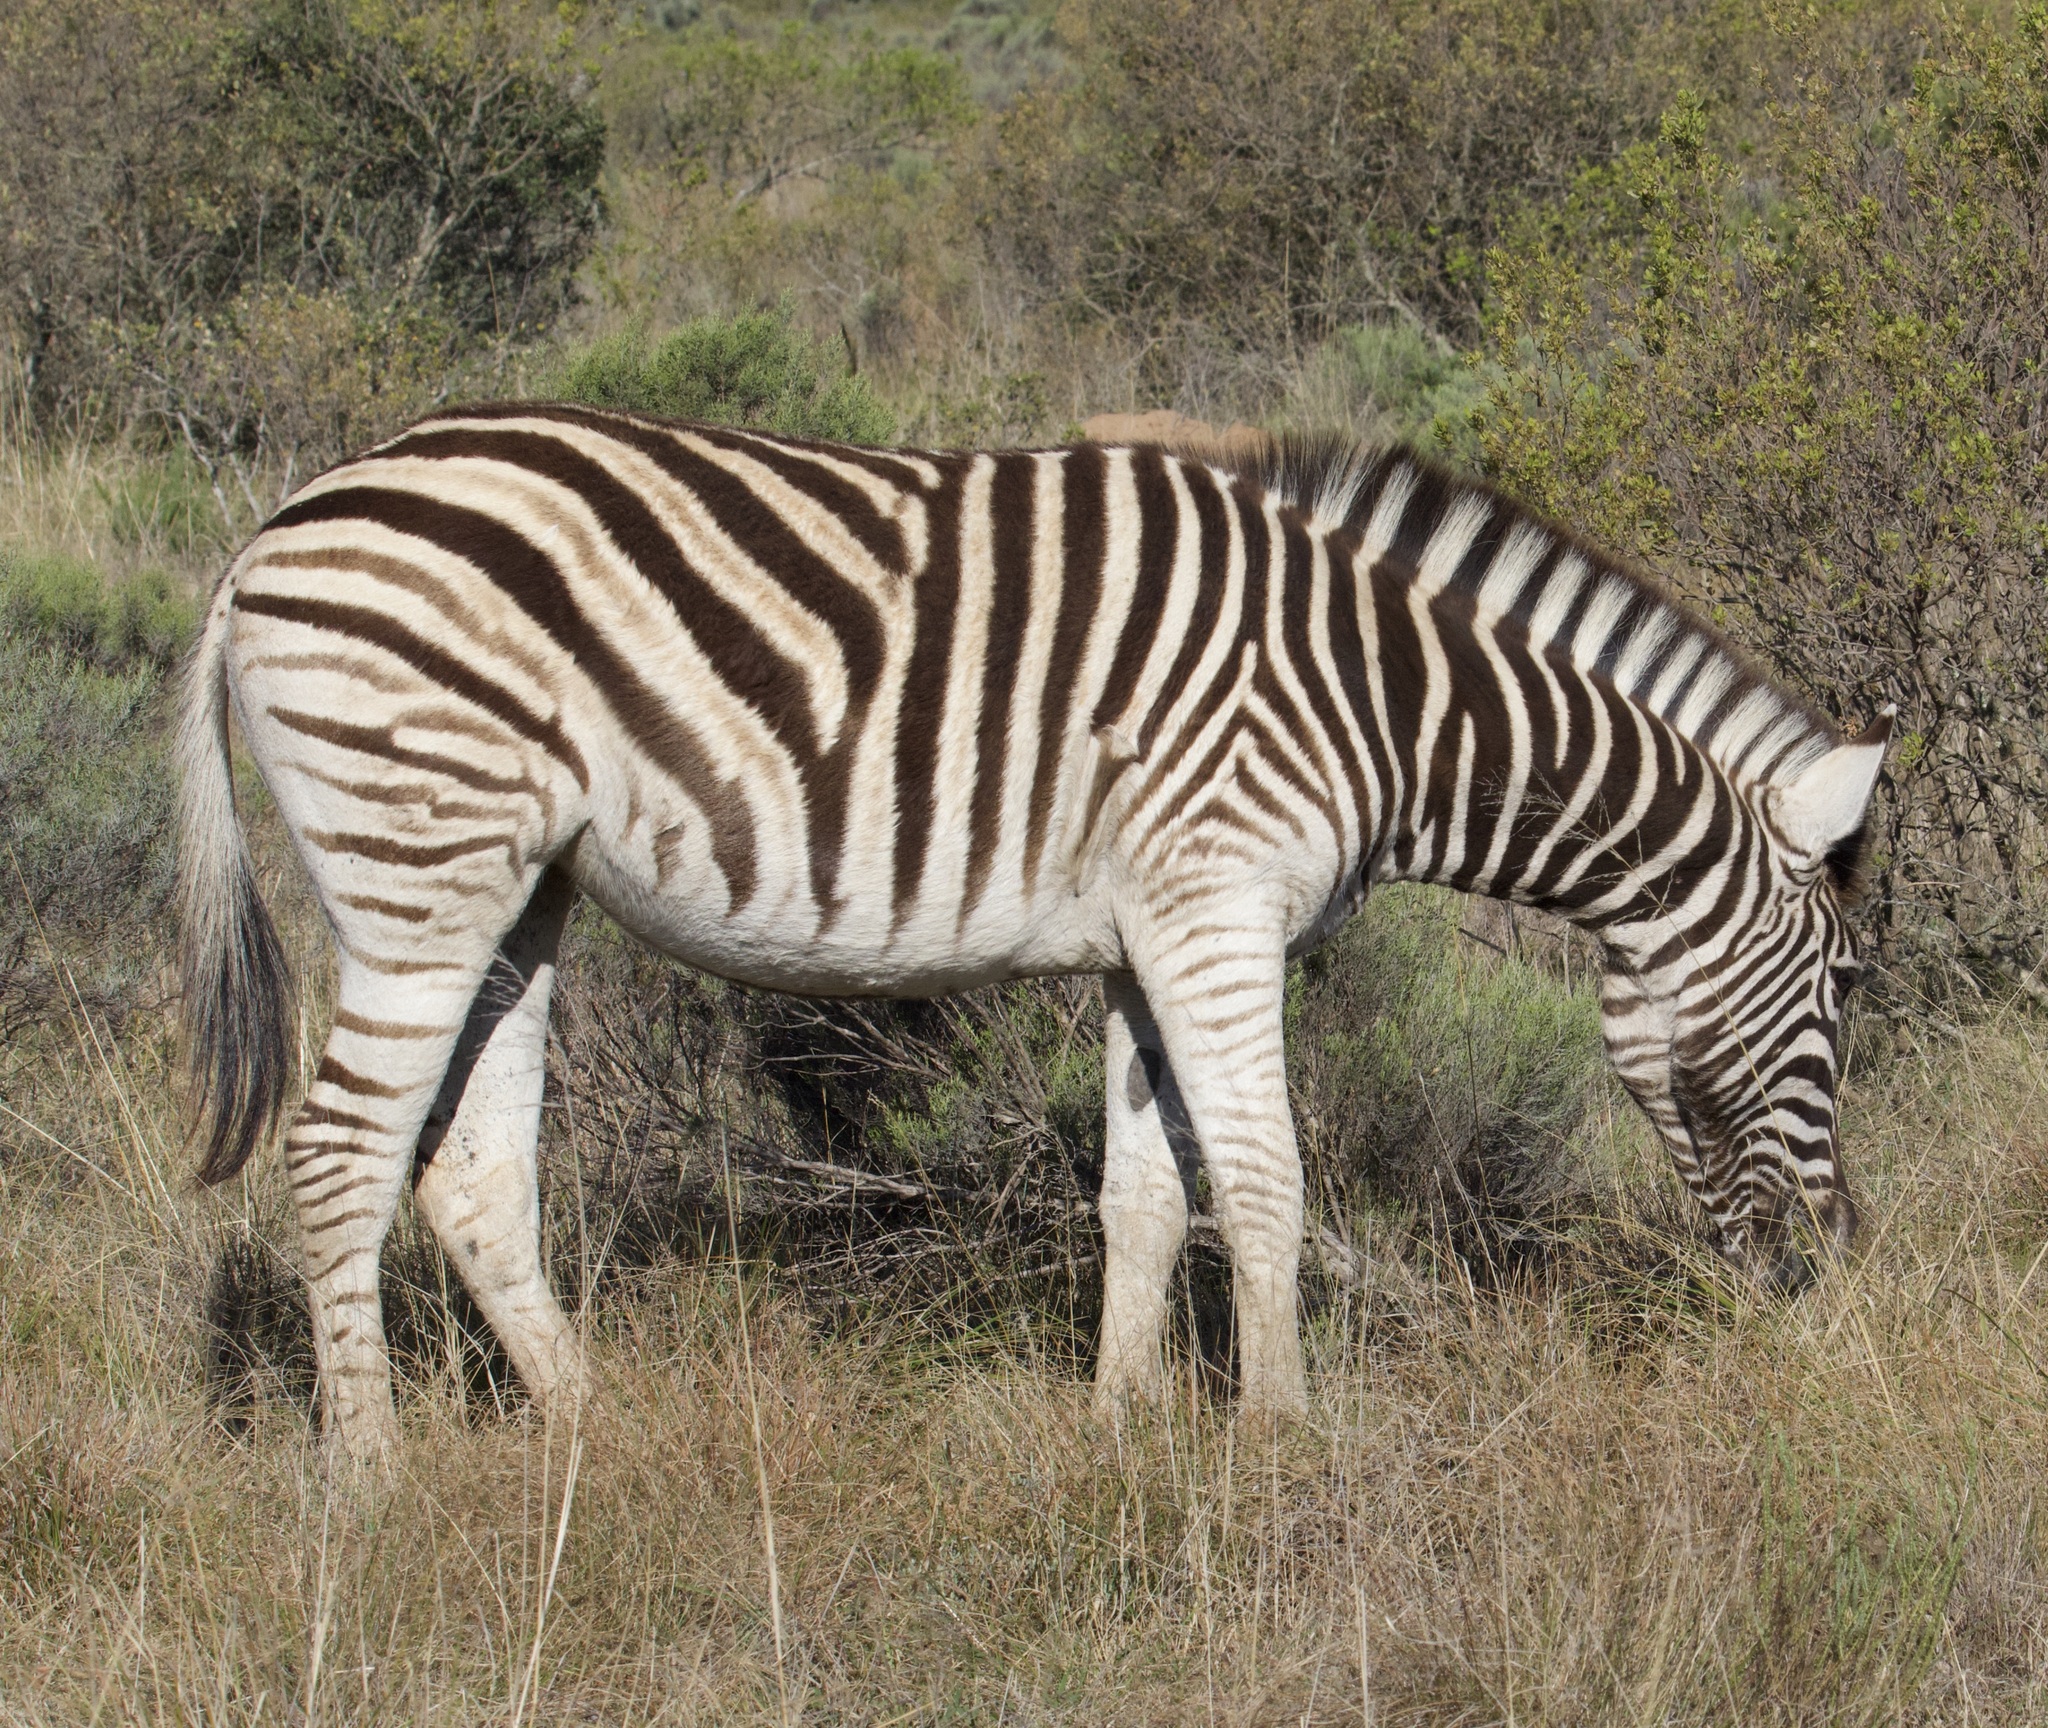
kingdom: Animalia
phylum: Chordata
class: Mammalia
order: Perissodactyla
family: Equidae
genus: Equus
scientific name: Equus quagga
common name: Plains zebra
